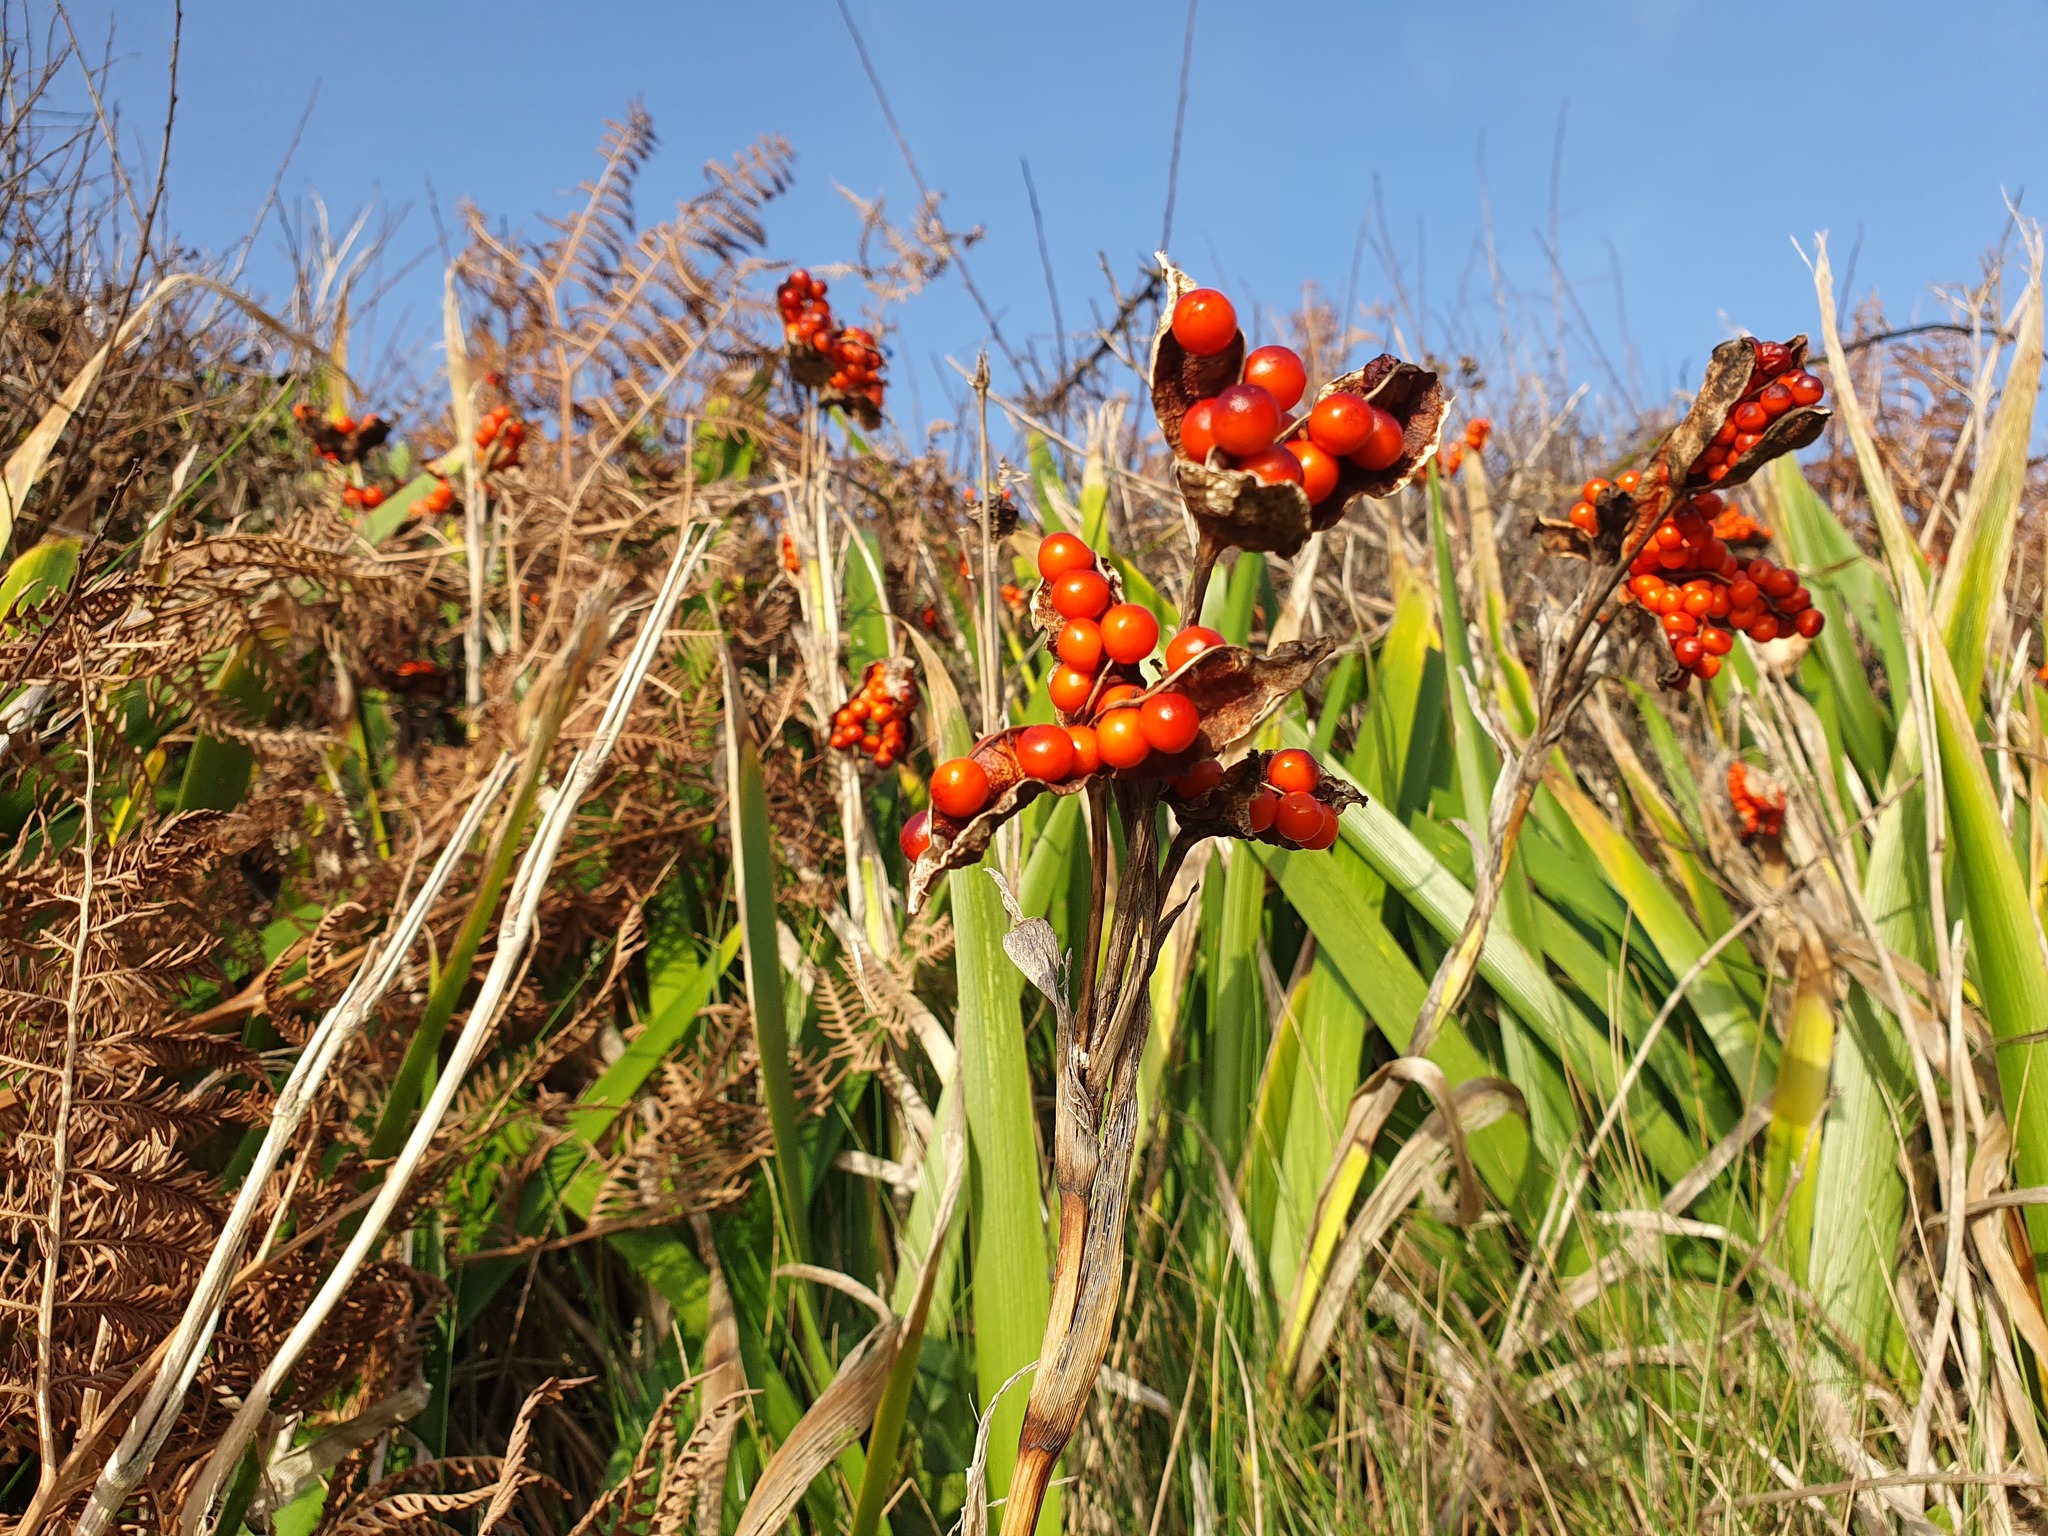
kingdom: Plantae
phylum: Tracheophyta
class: Liliopsida
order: Asparagales
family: Iridaceae
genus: Iris
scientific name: Iris foetidissima
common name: Stinking iris
